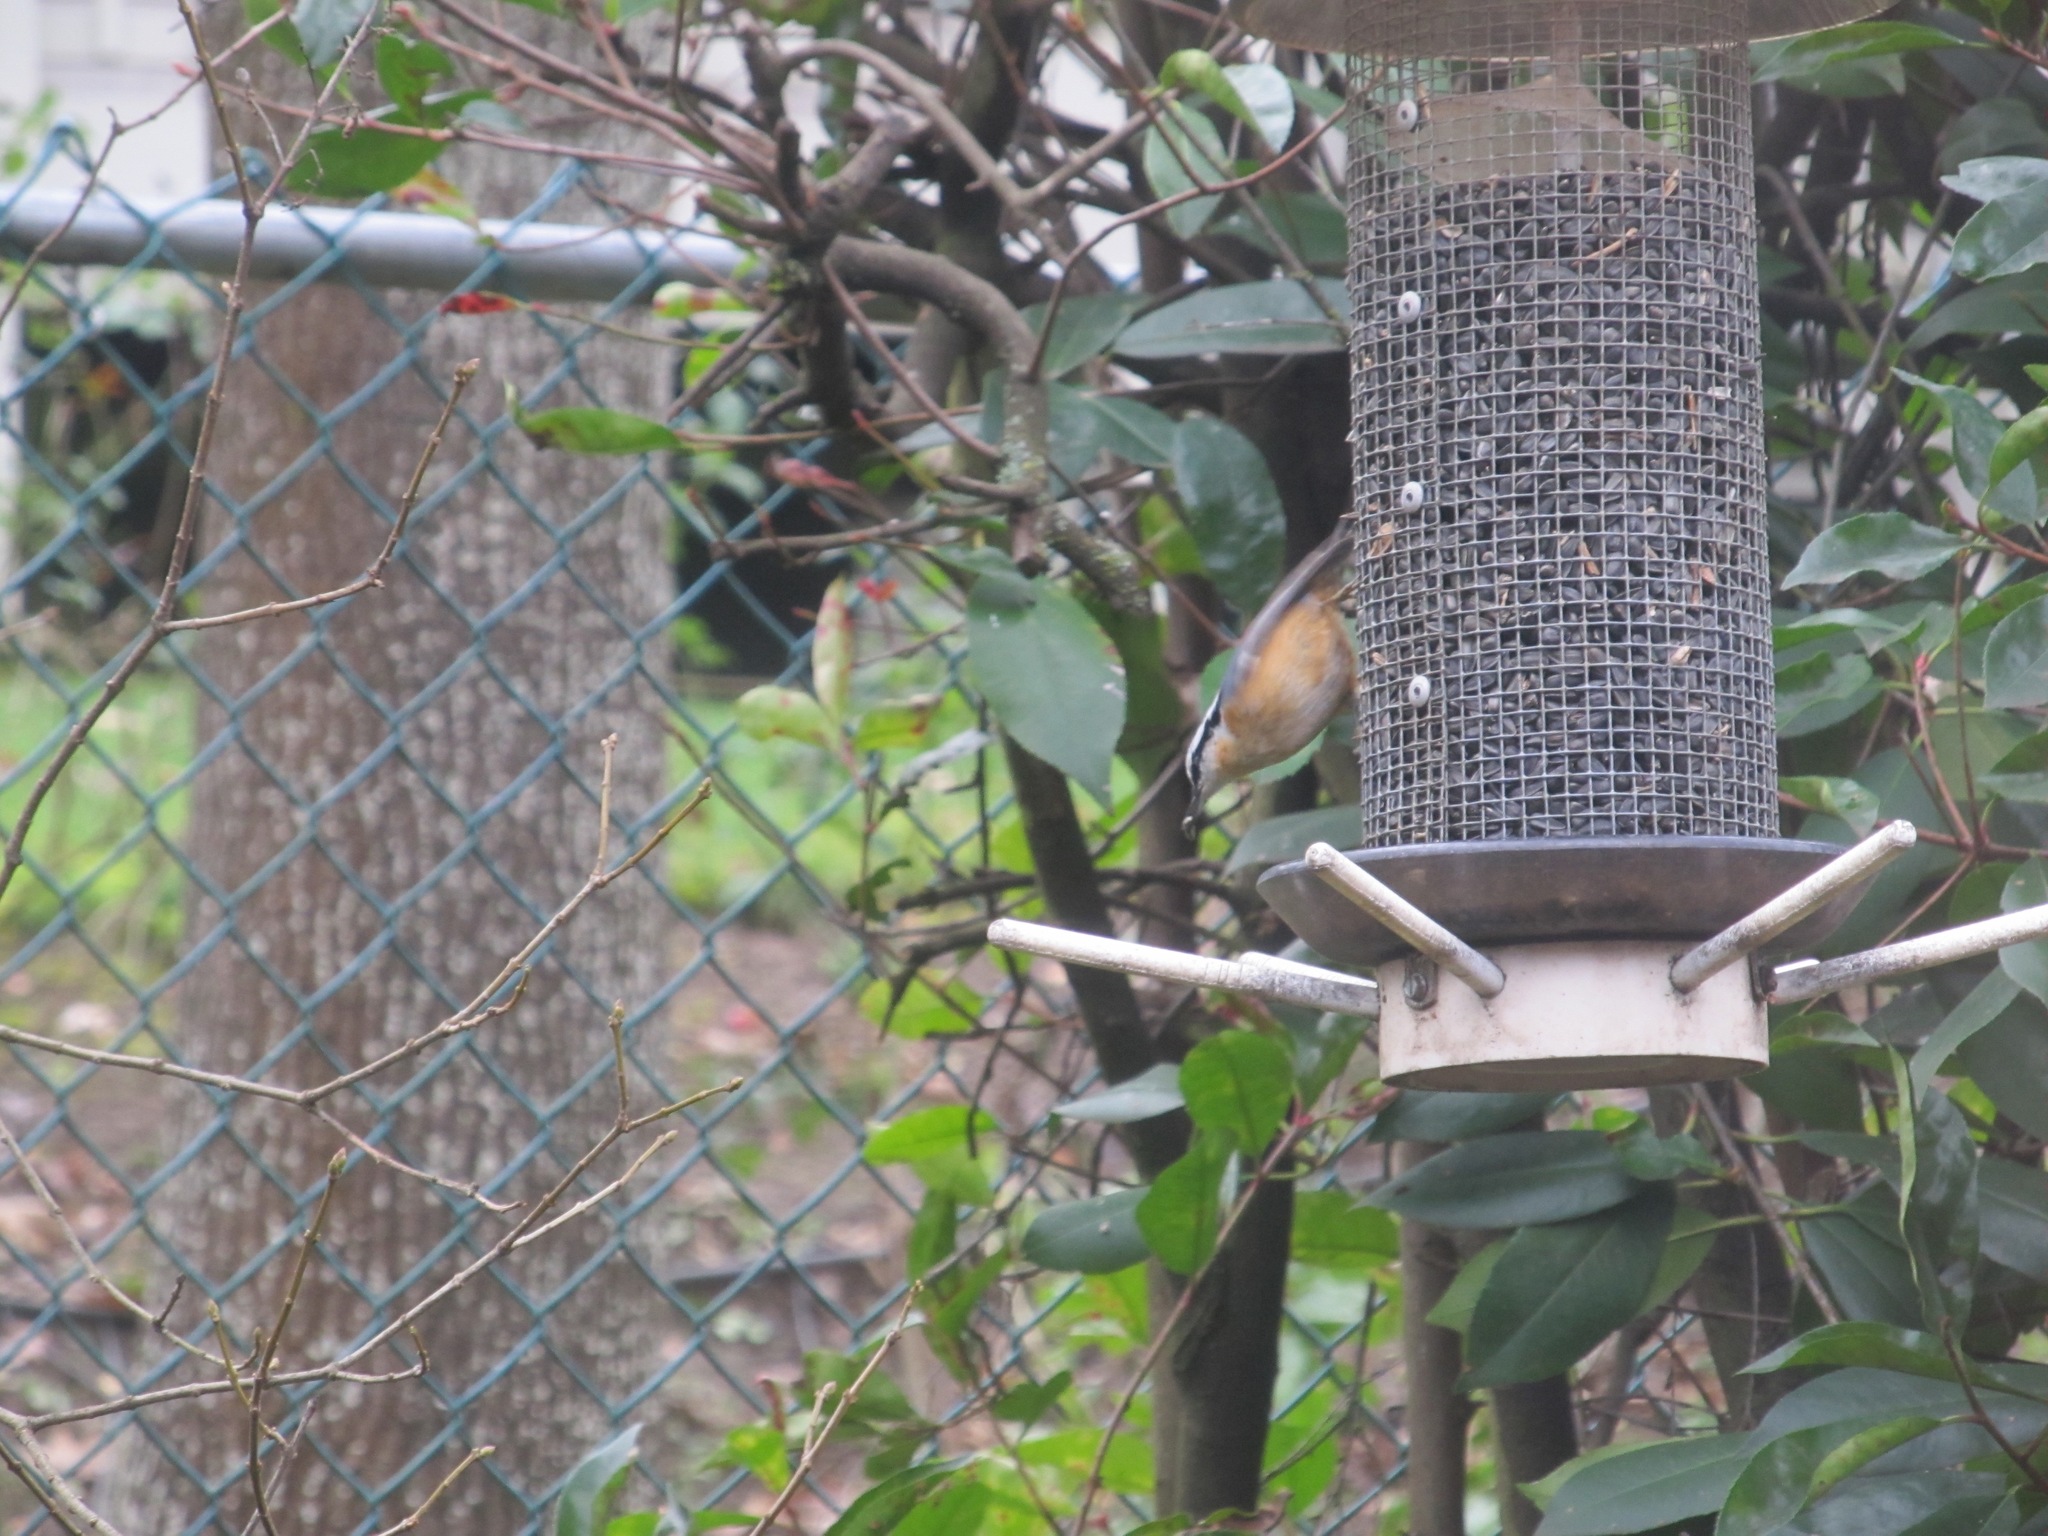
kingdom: Animalia
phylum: Chordata
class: Aves
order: Passeriformes
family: Sittidae
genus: Sitta
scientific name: Sitta canadensis
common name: Red-breasted nuthatch
